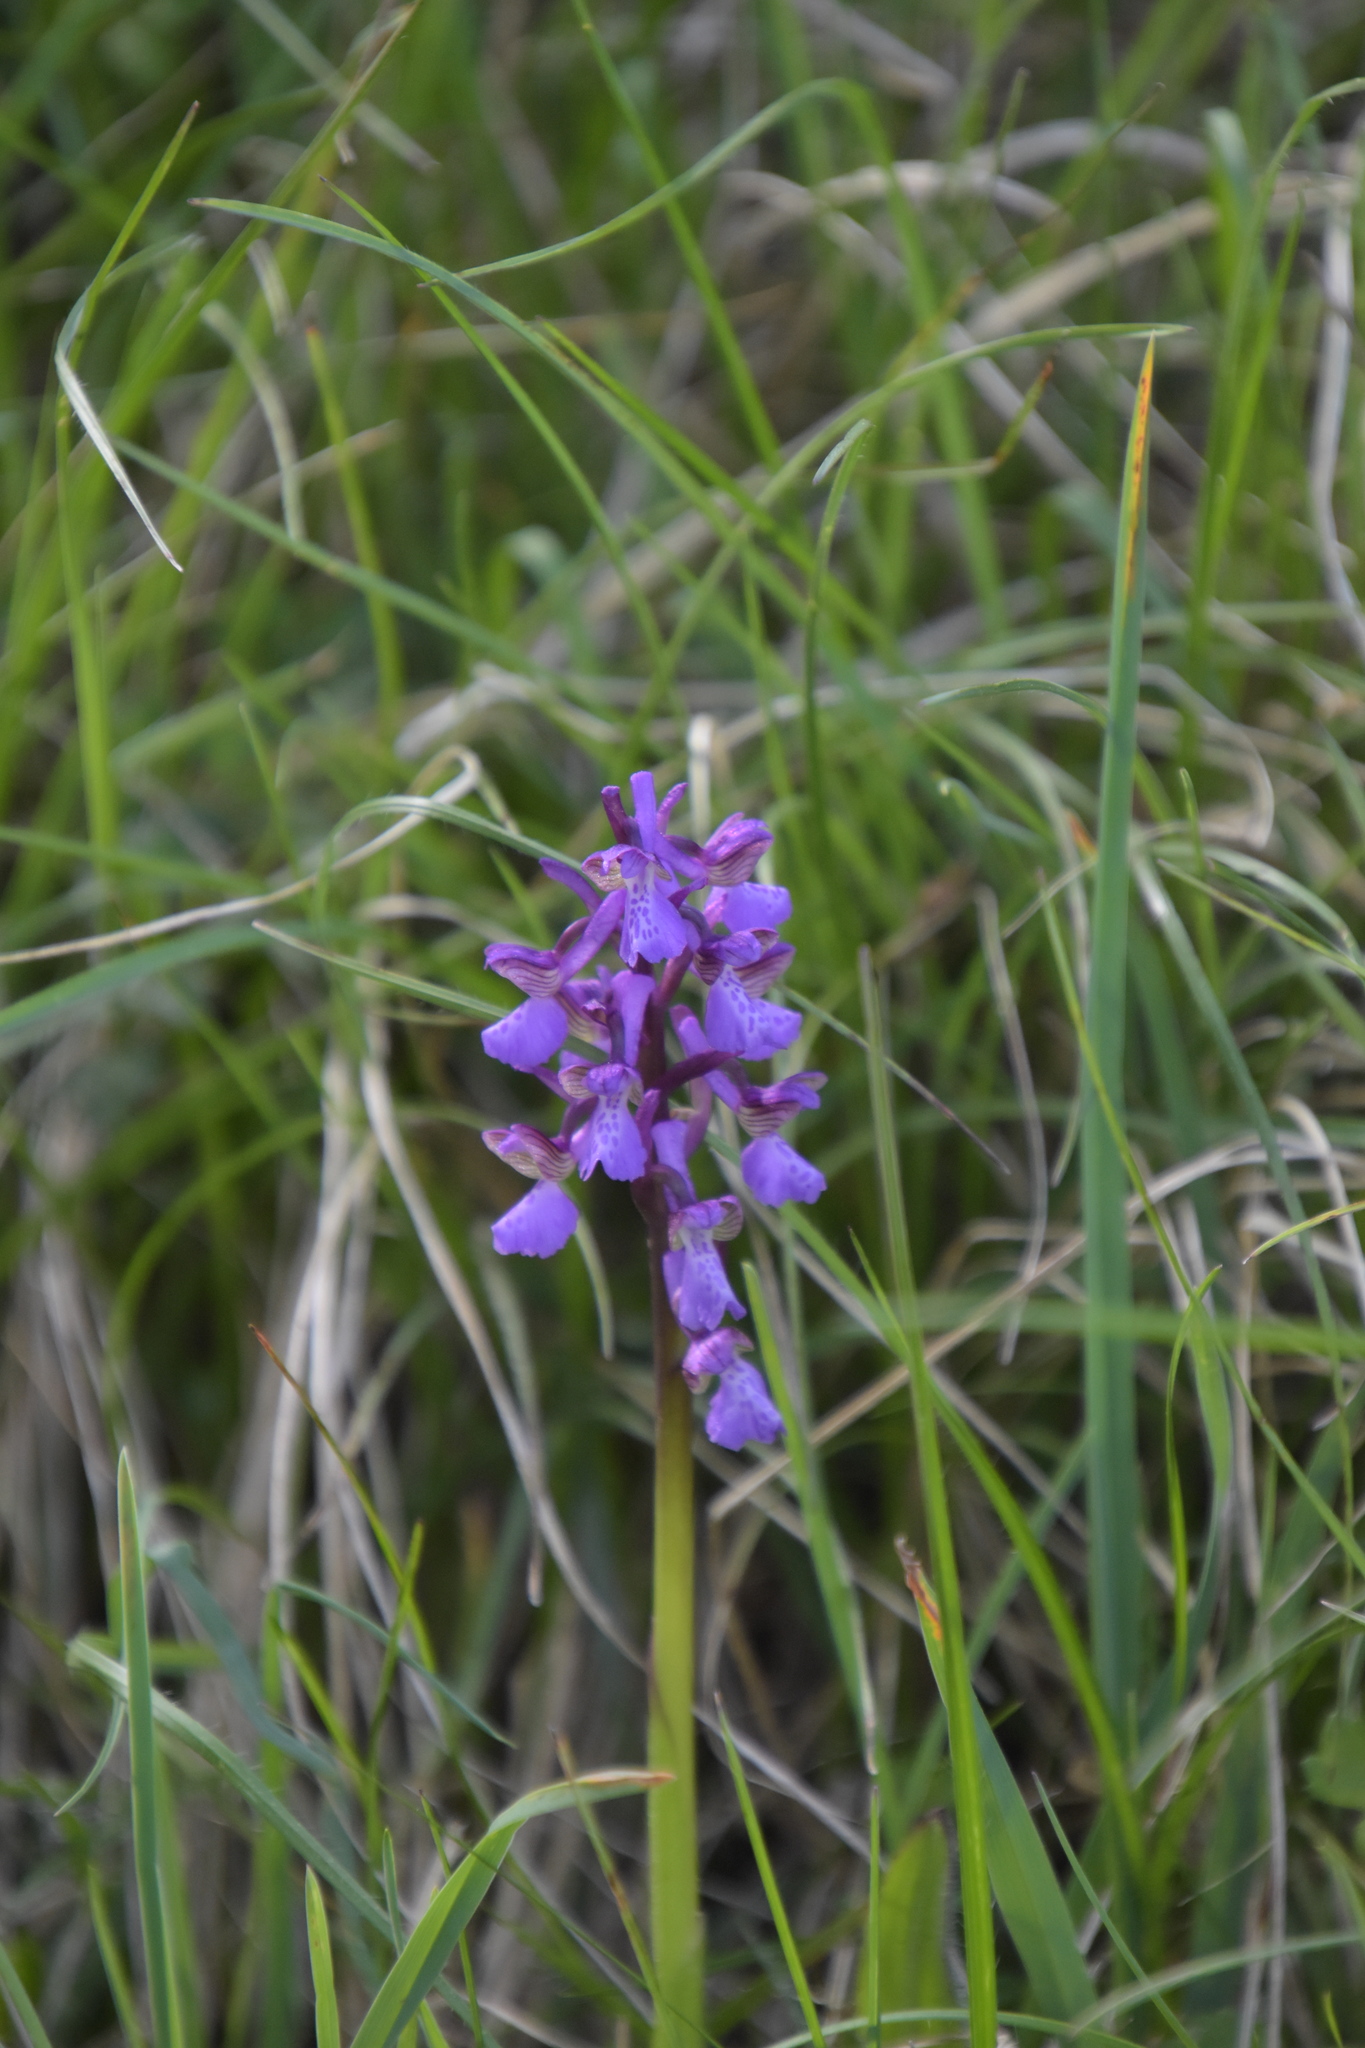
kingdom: Plantae
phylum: Tracheophyta
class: Liliopsida
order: Asparagales
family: Orchidaceae
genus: Anacamptis
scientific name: Anacamptis morio
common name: Green-winged orchid
